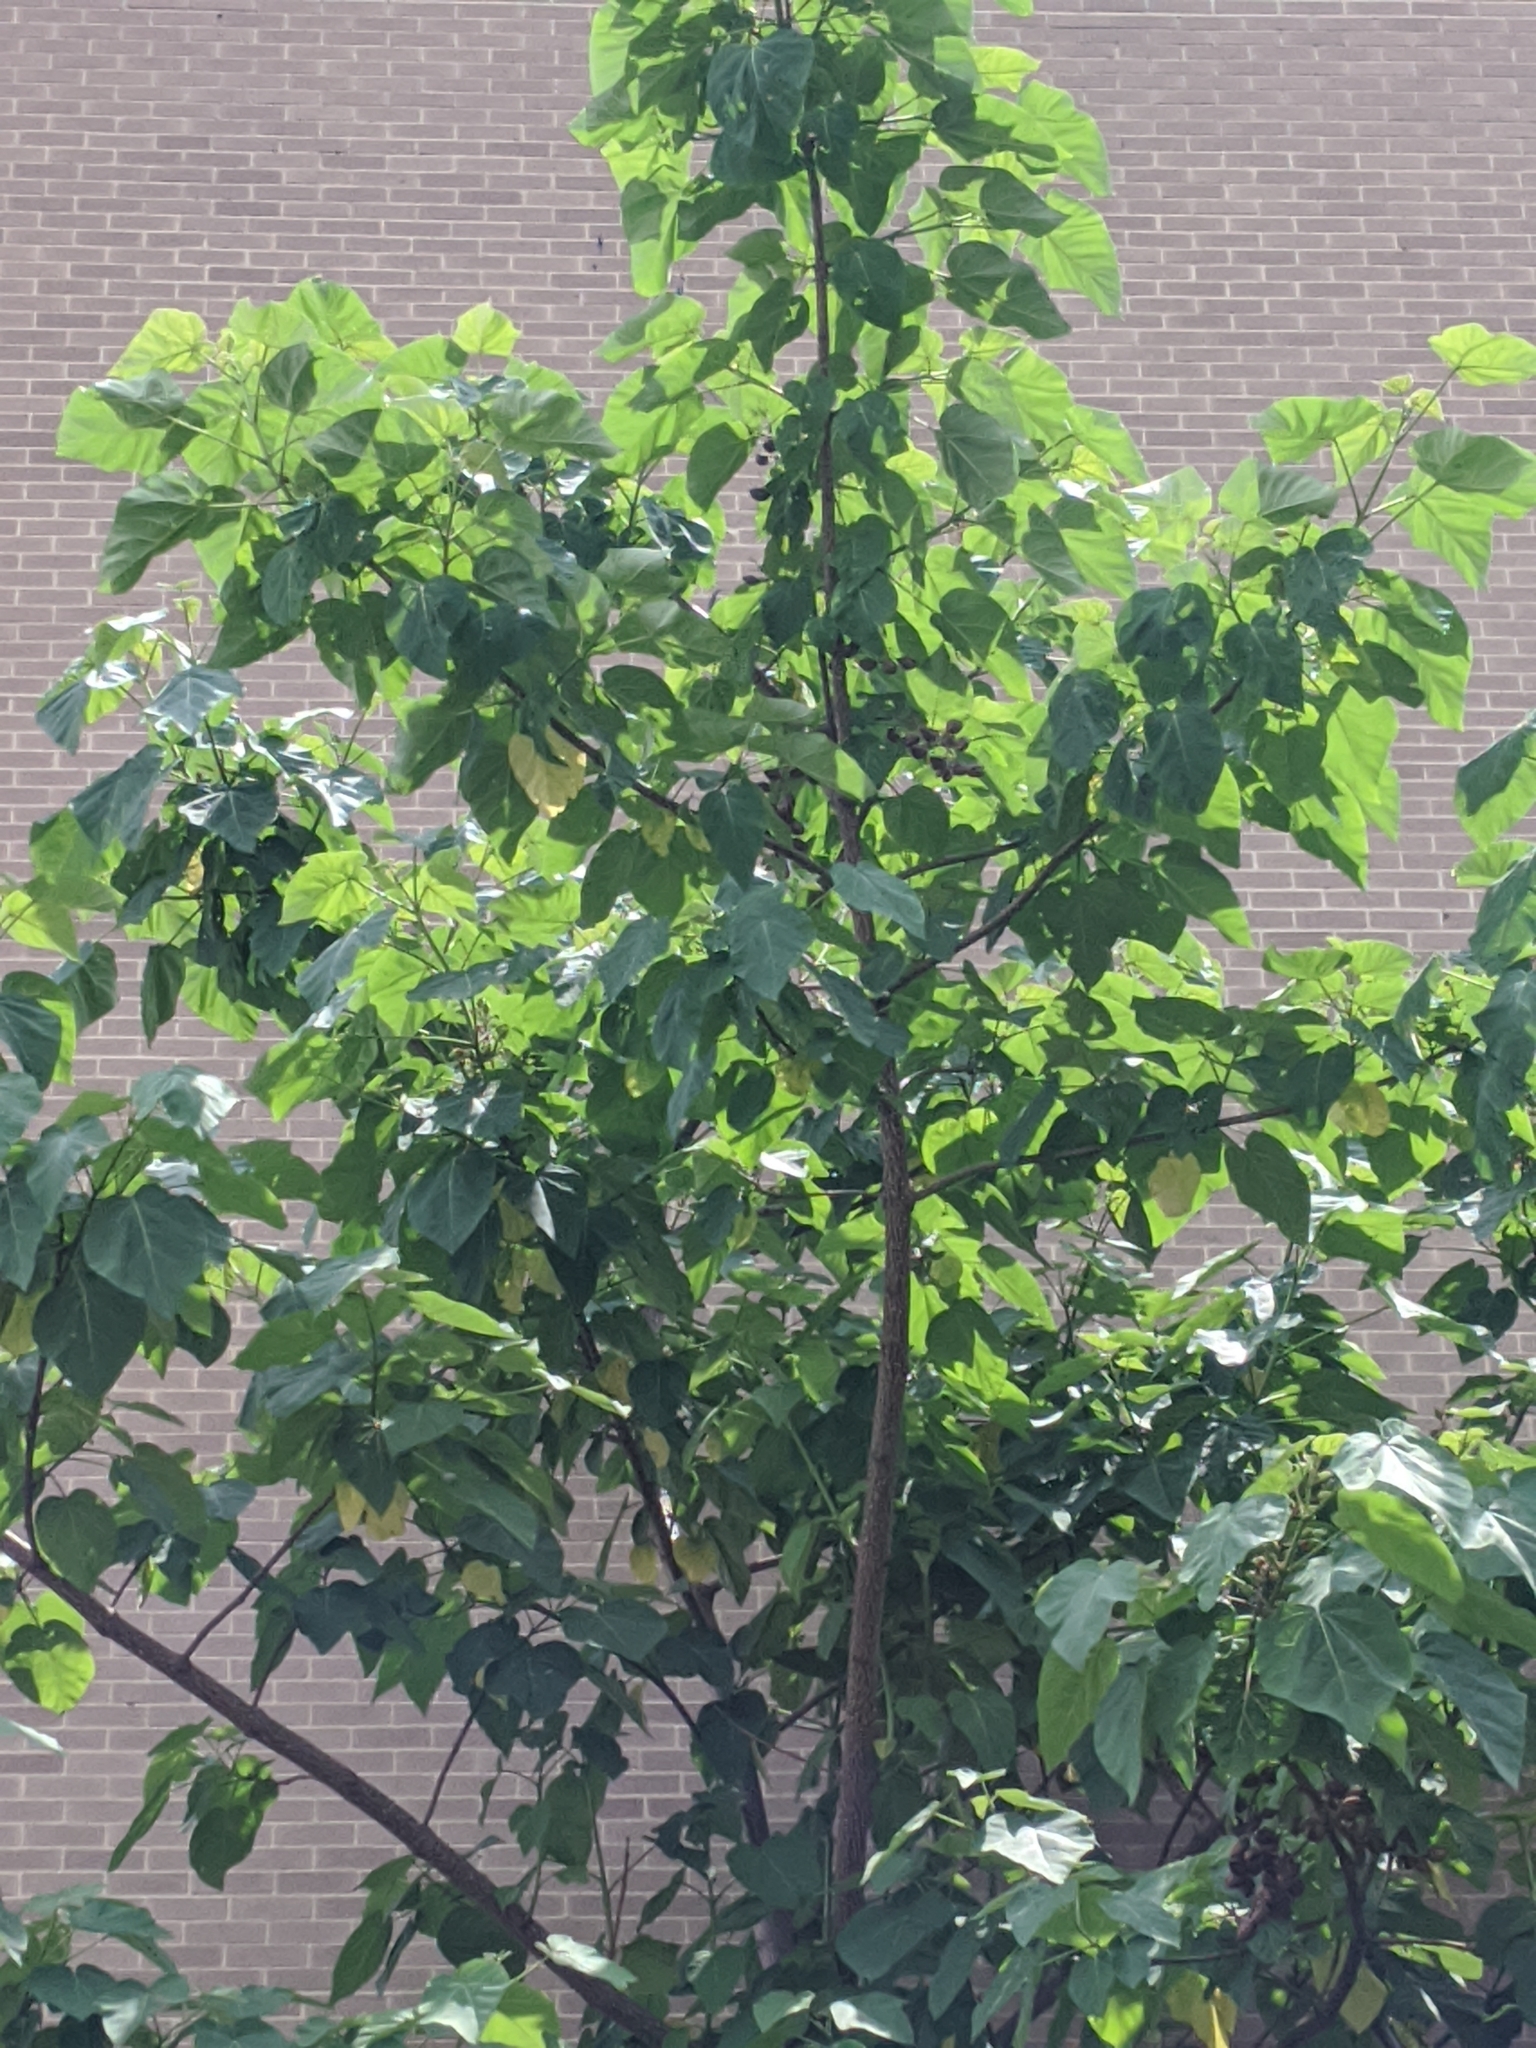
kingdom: Plantae
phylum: Tracheophyta
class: Magnoliopsida
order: Lamiales
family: Paulowniaceae
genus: Paulownia
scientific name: Paulownia tomentosa
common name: Foxglove-tree
